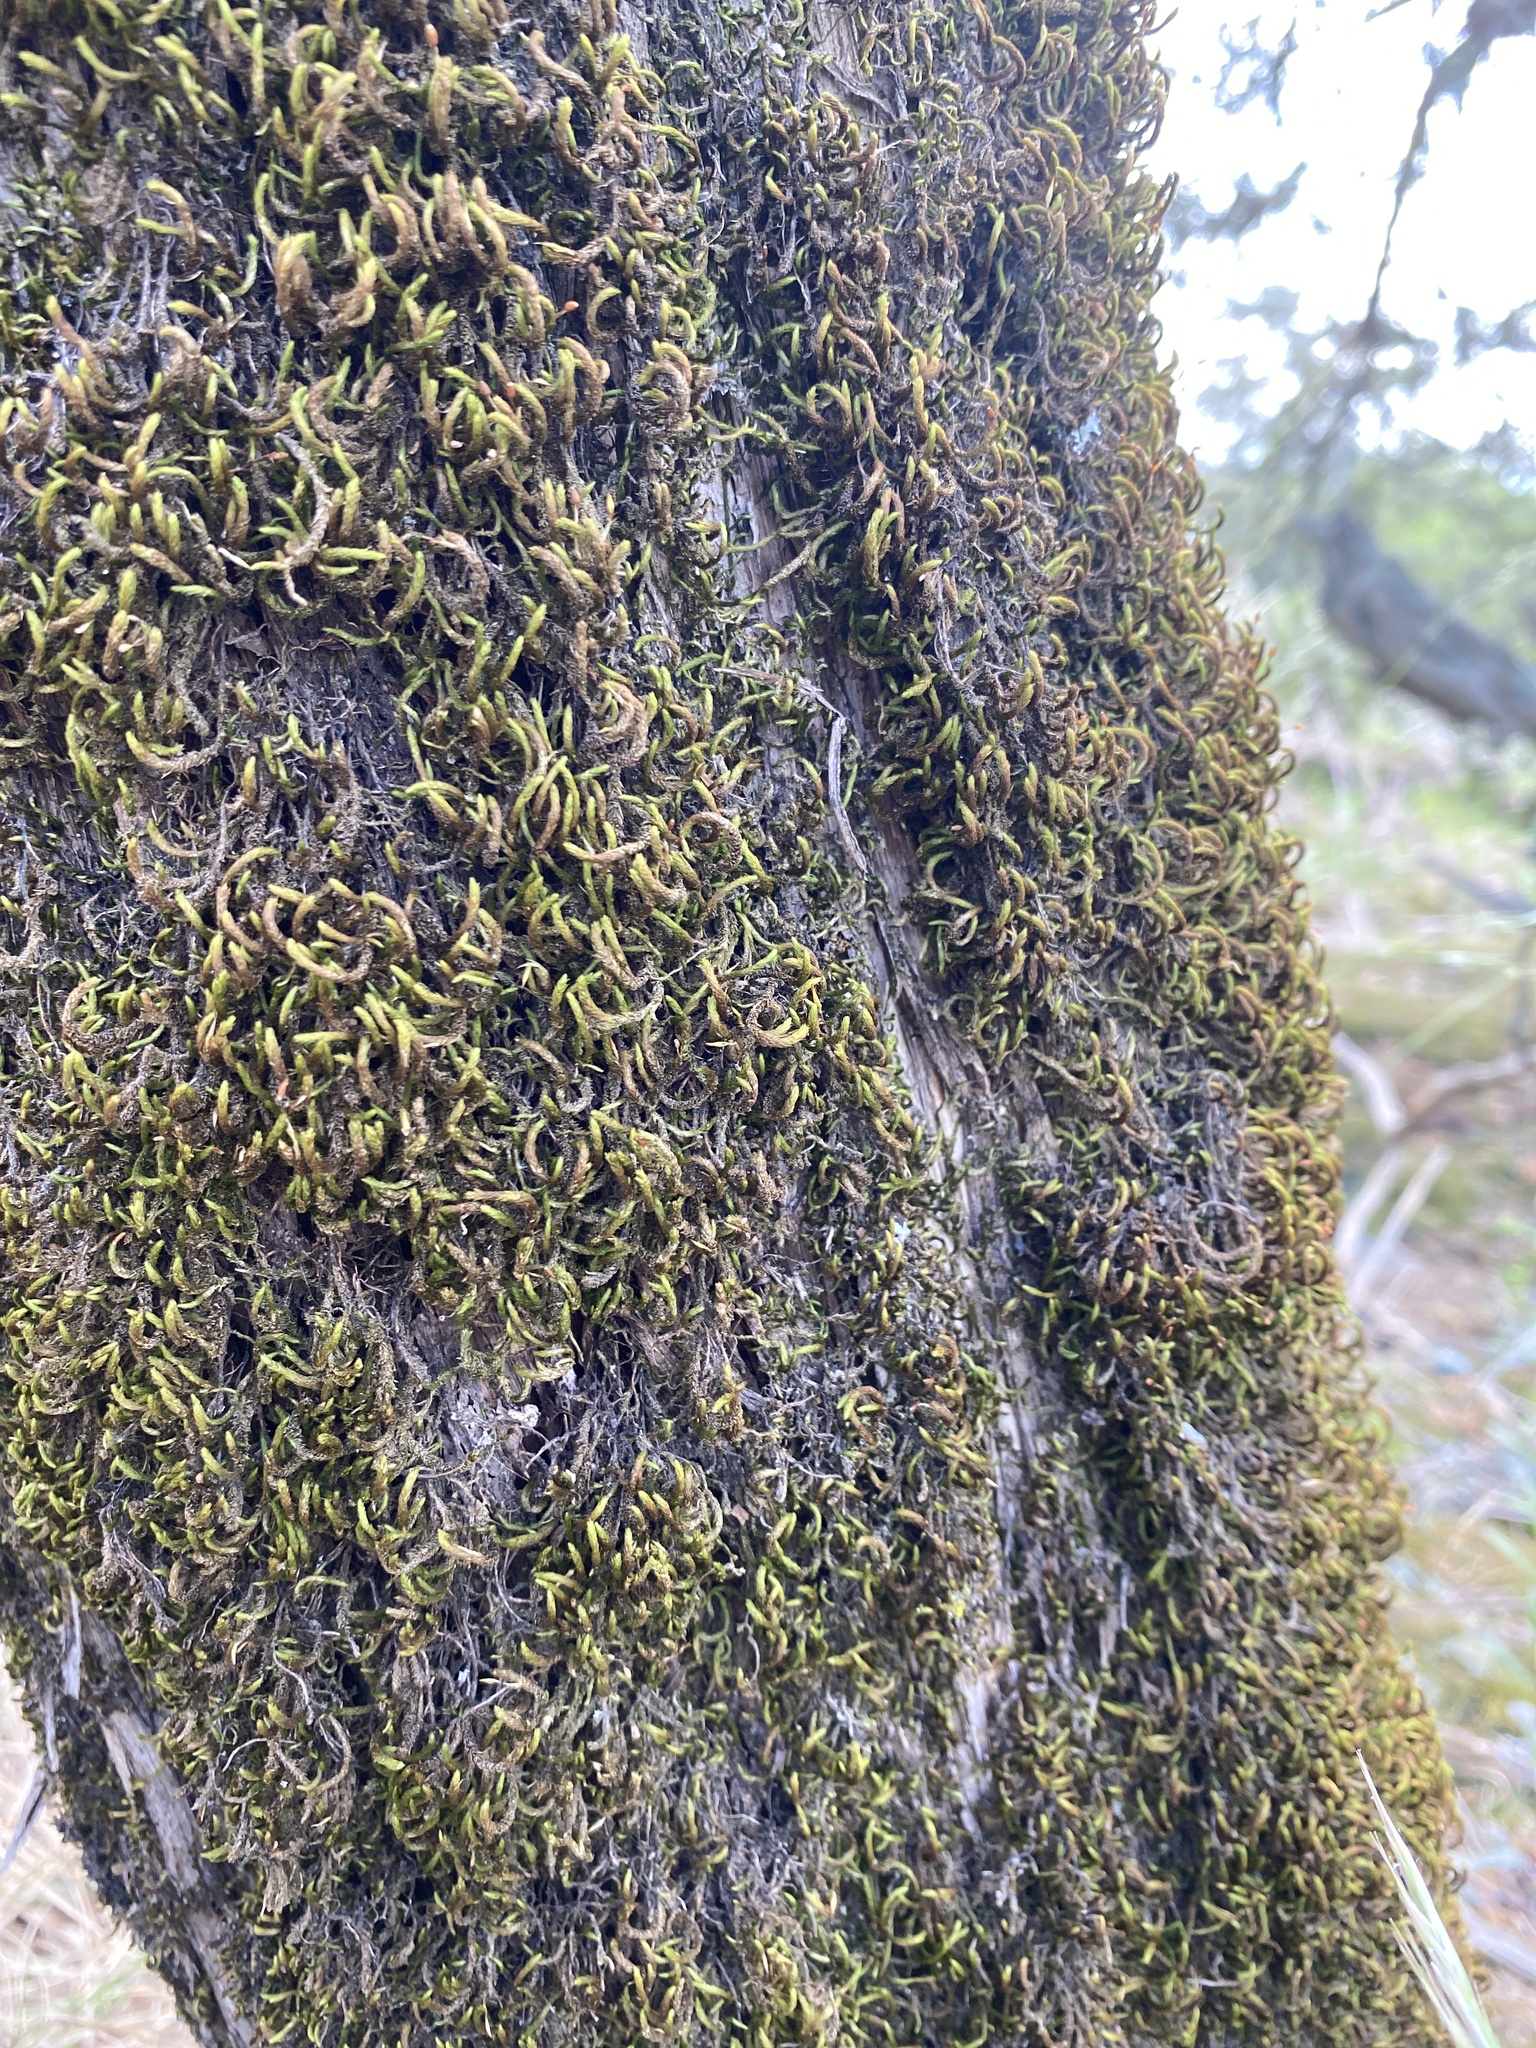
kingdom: Plantae
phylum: Bryophyta
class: Bryopsida
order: Hypnales
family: Leucodontaceae
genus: Leucodon
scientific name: Leucodon julaceus
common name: Smooth hook moss
